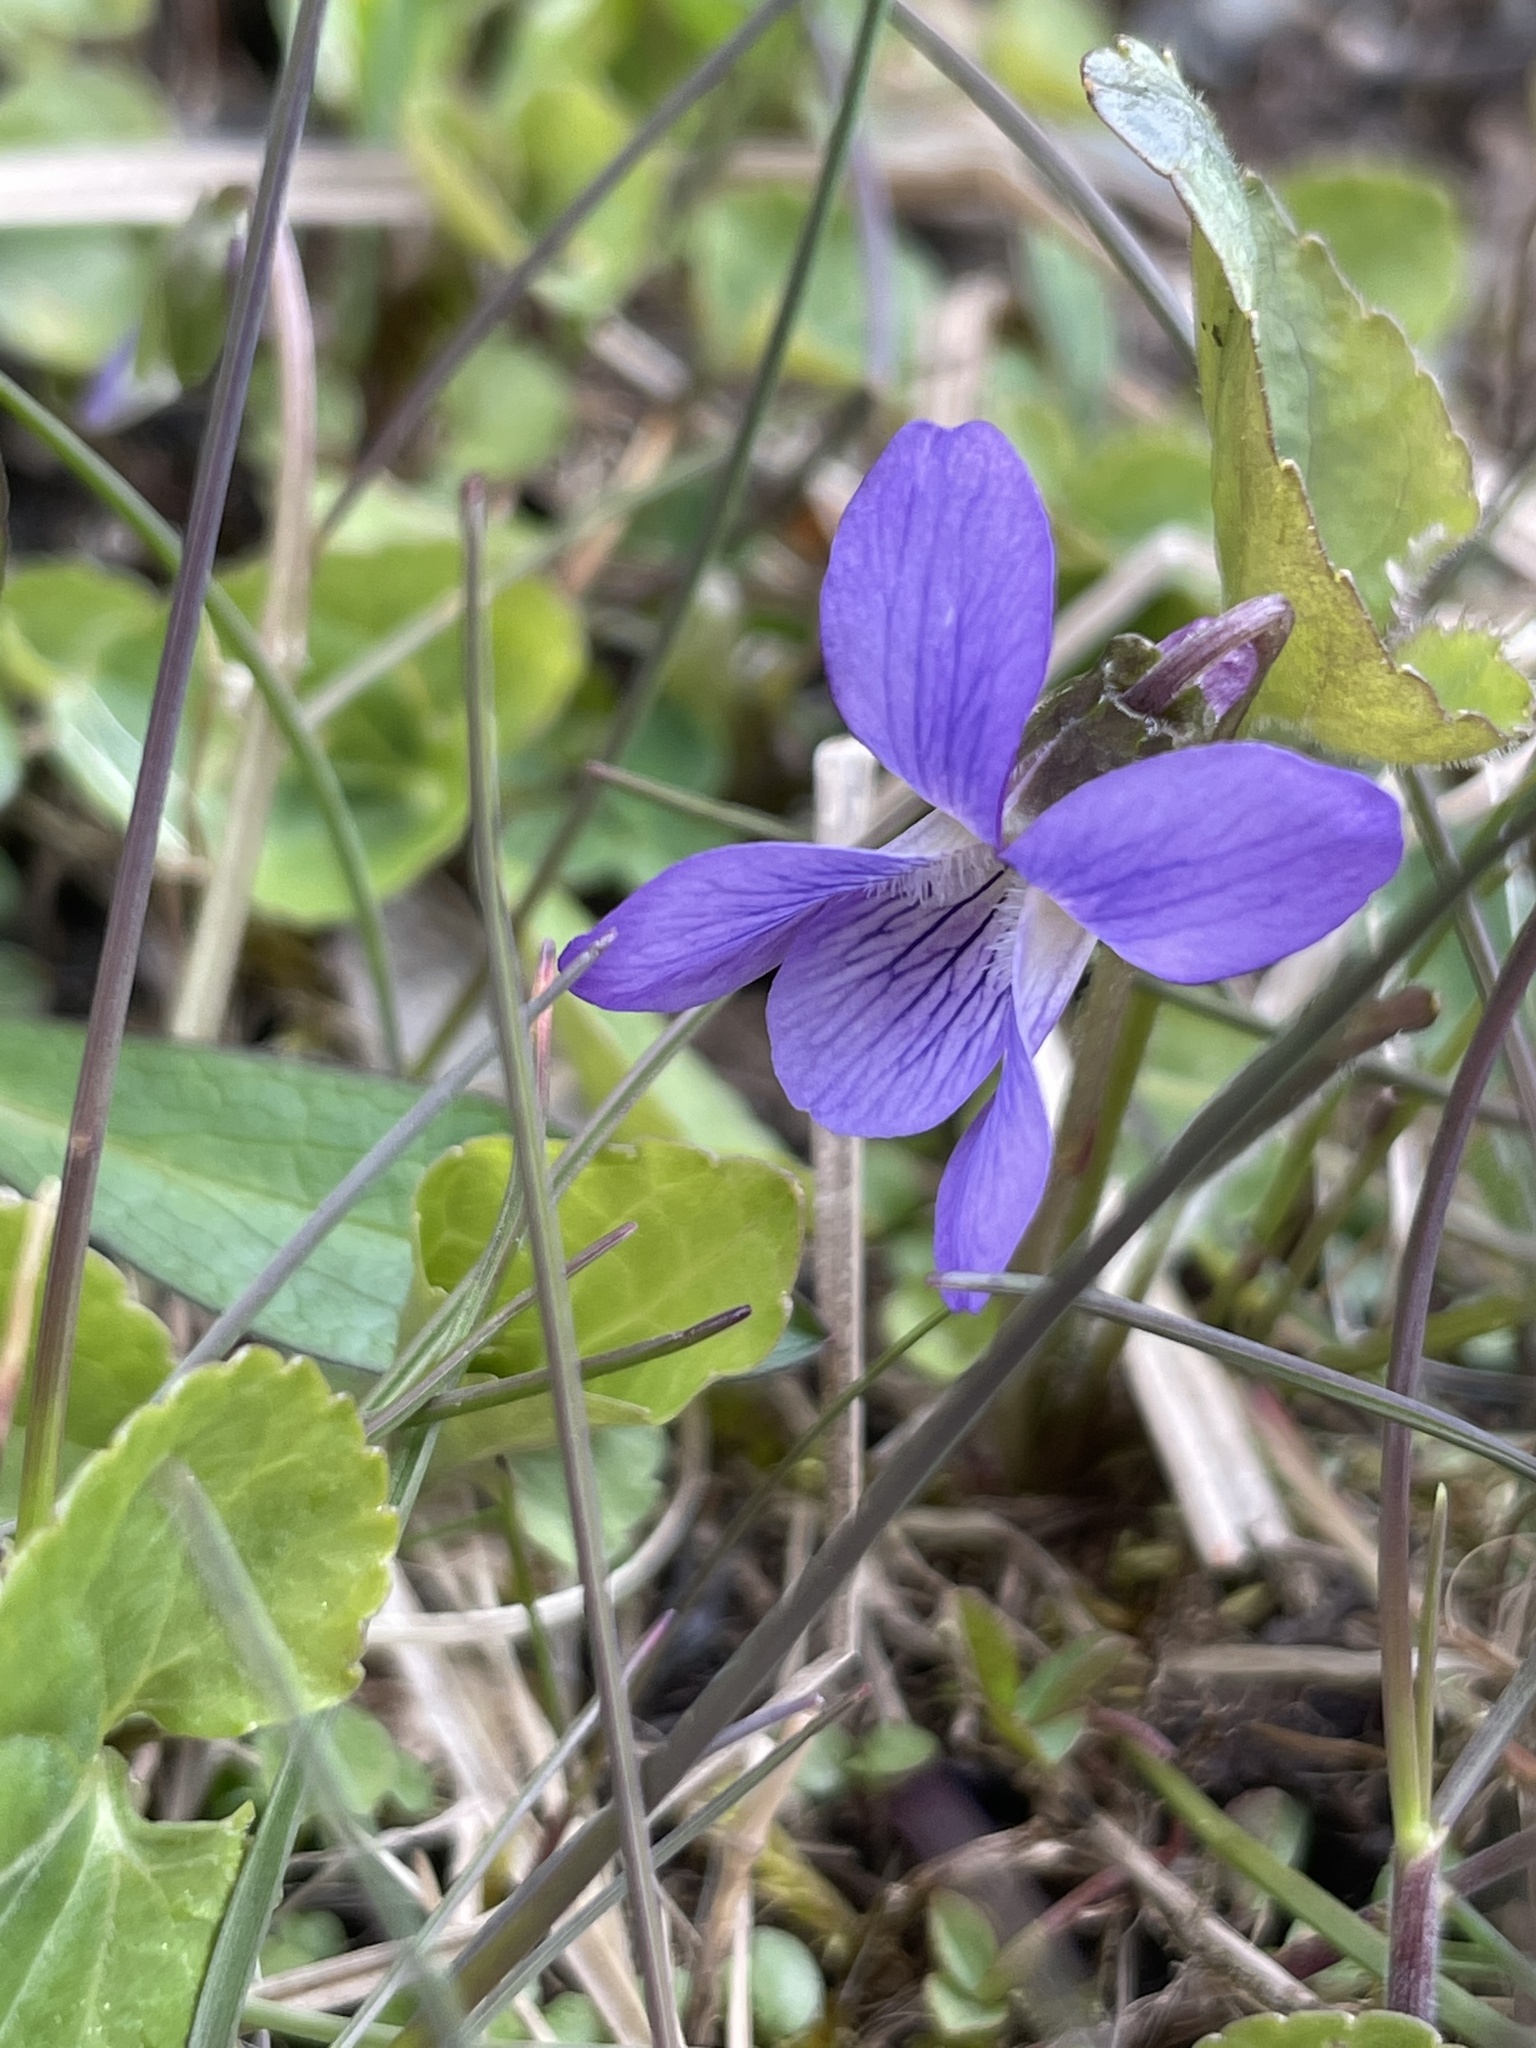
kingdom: Plantae
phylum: Tracheophyta
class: Magnoliopsida
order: Malpighiales
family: Violaceae
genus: Viola
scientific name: Viola sororia
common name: Dooryard violet
